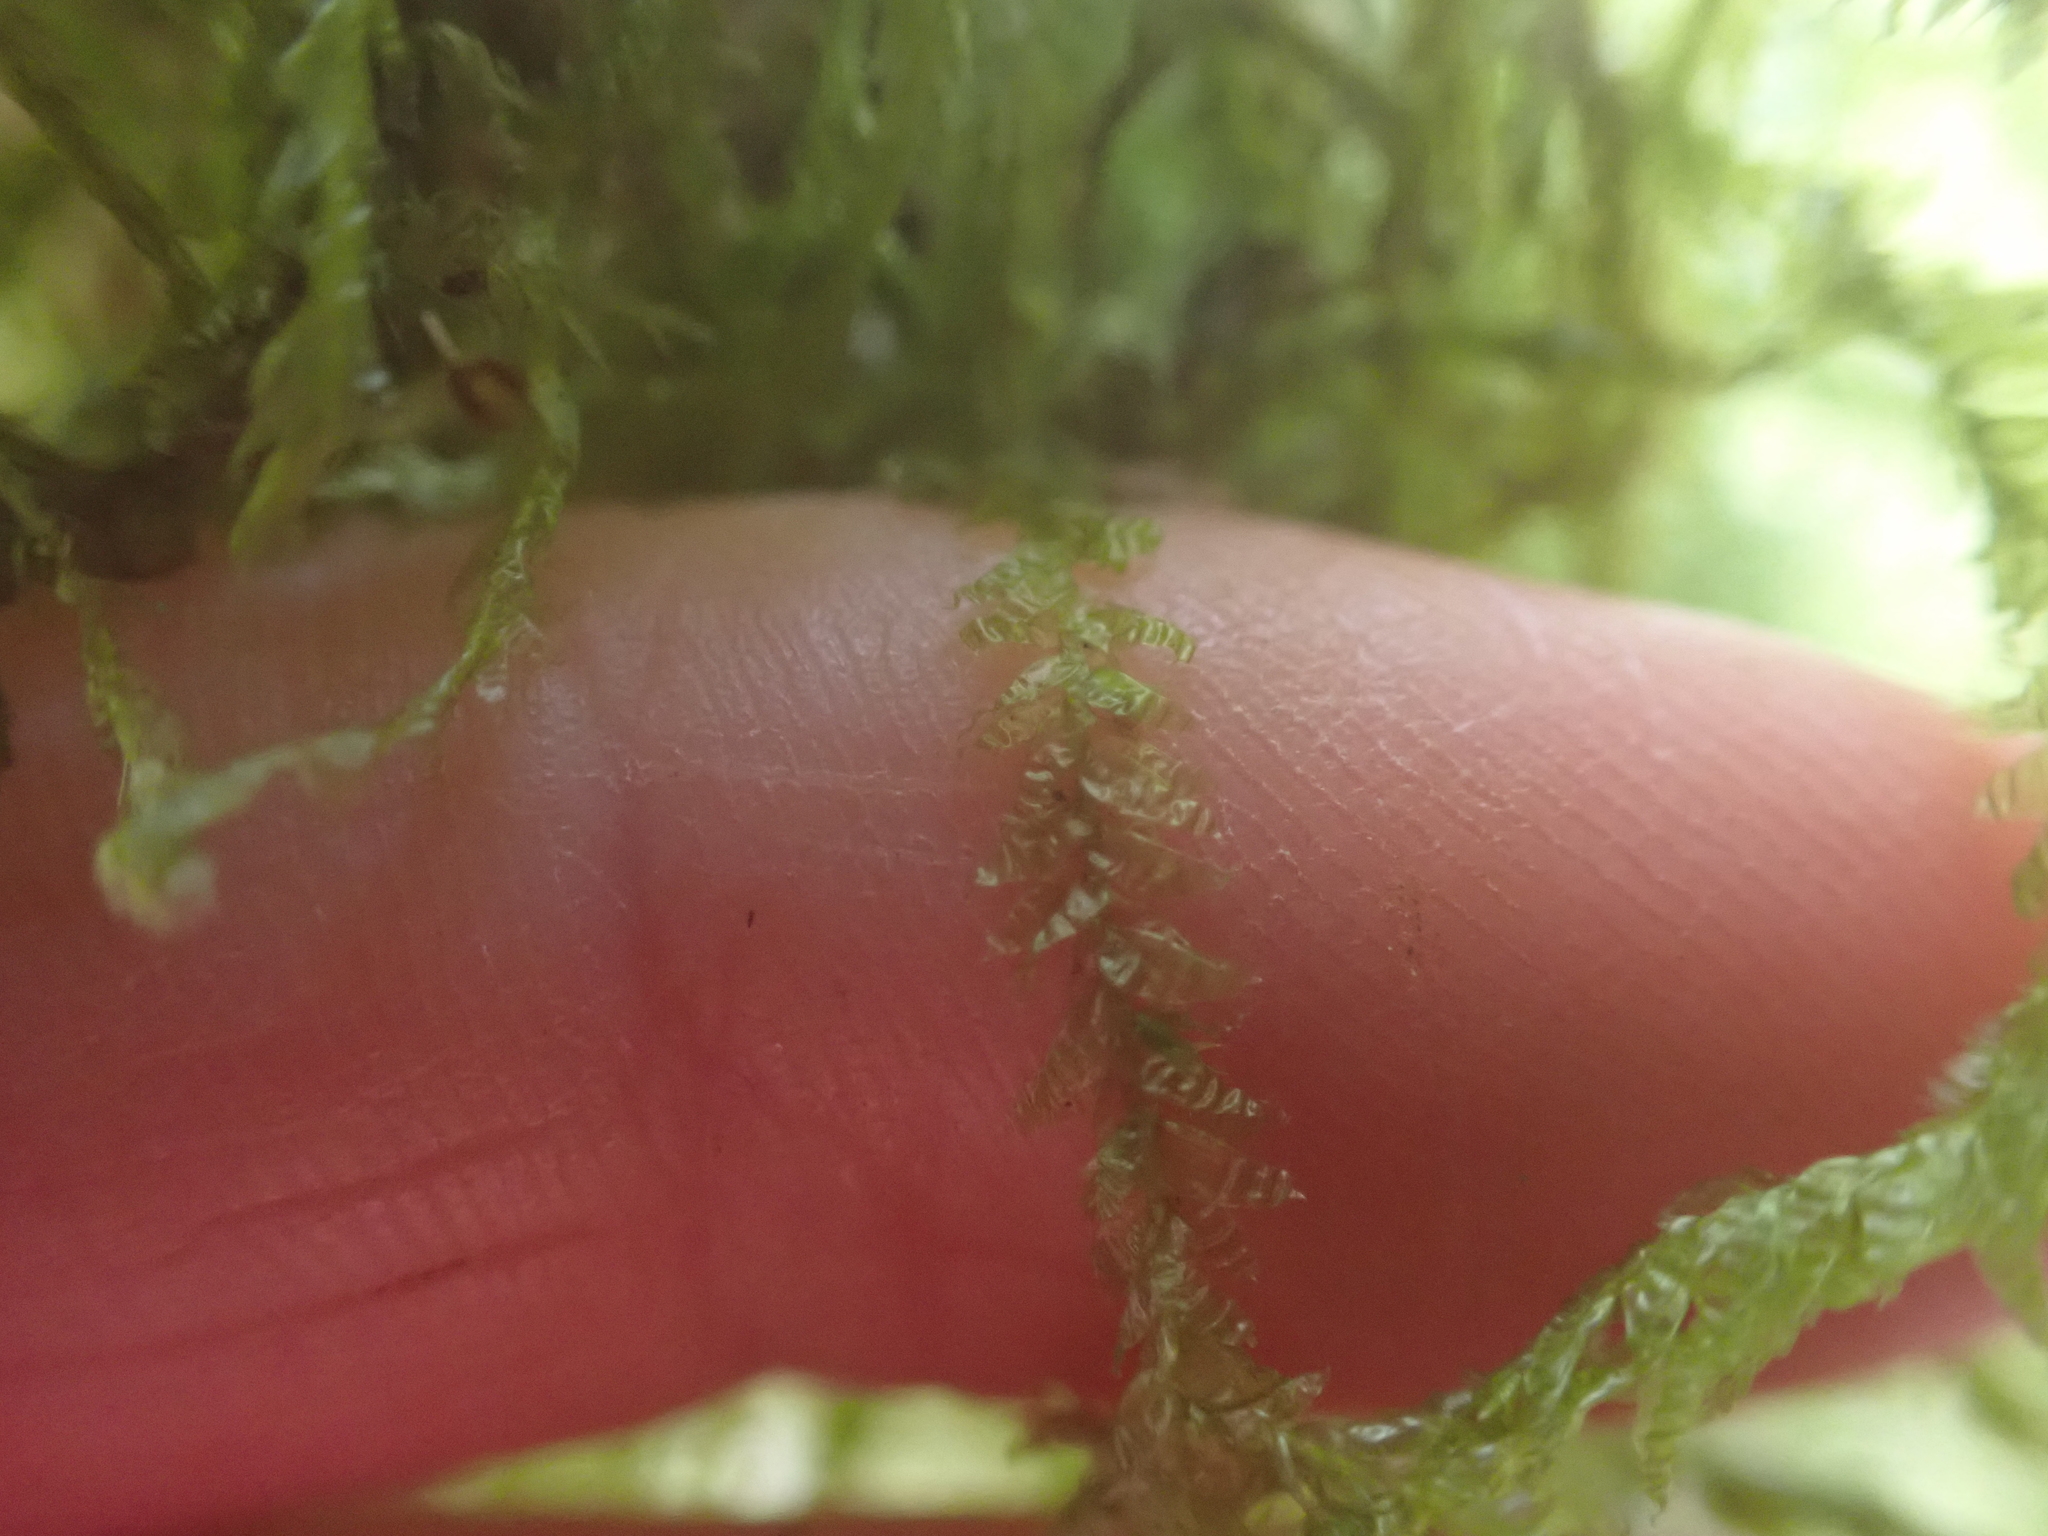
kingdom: Plantae
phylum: Bryophyta
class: Bryopsida
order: Hypnales
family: Neckeraceae
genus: Neckera
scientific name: Neckera douglasii
